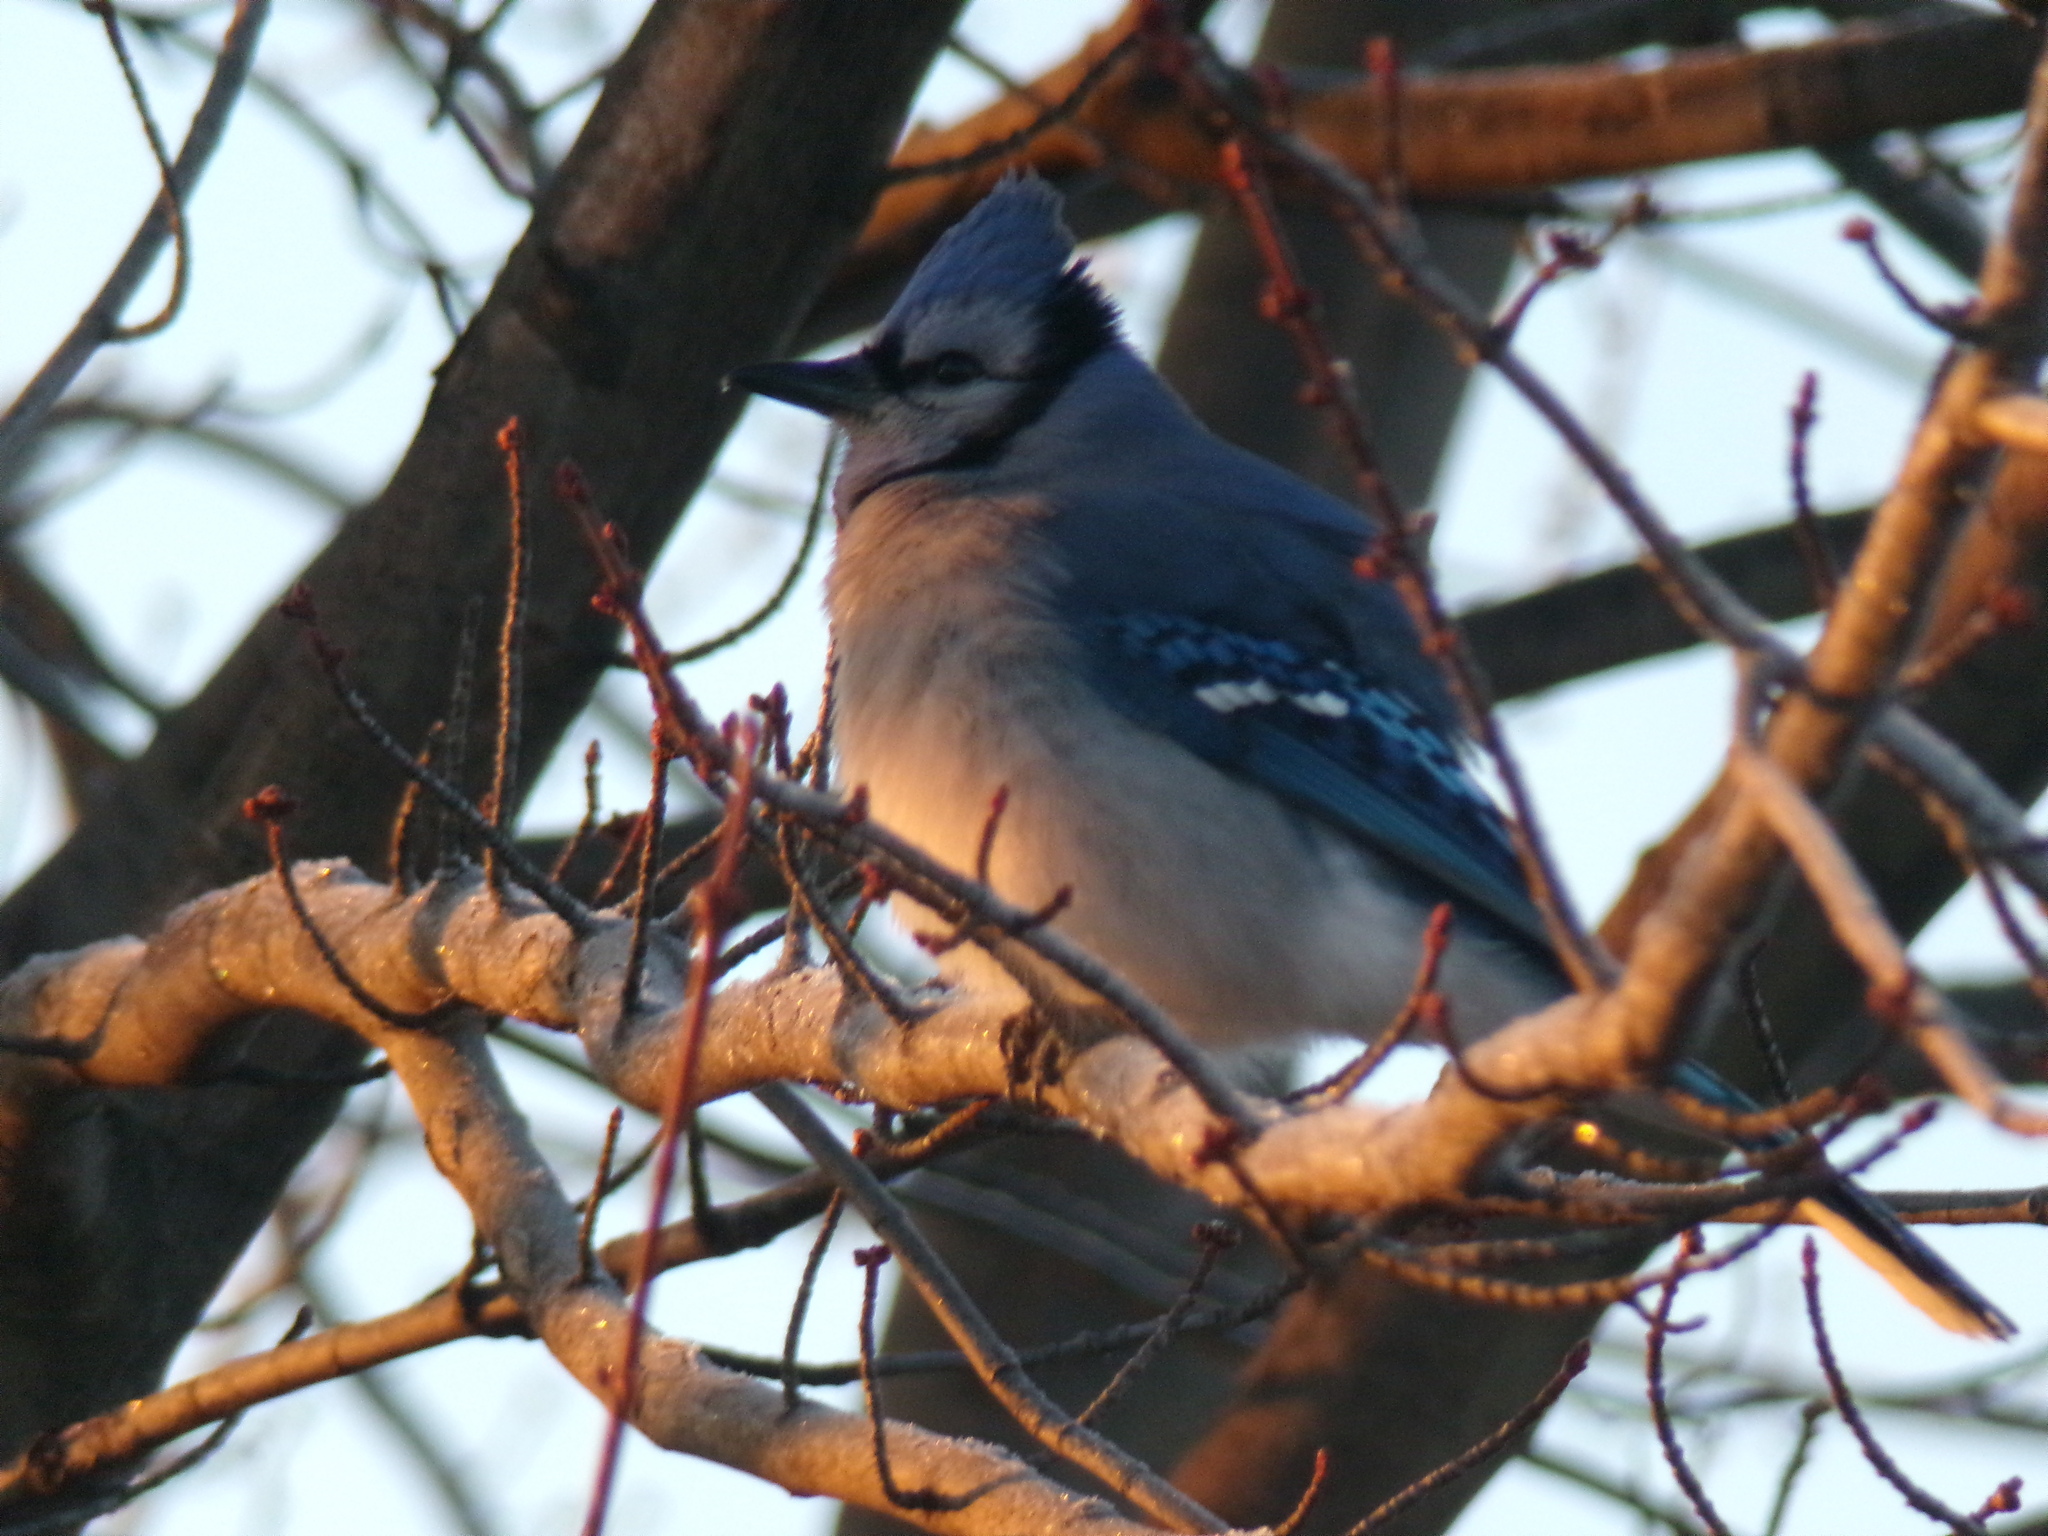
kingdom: Animalia
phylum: Chordata
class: Aves
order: Passeriformes
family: Corvidae
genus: Cyanocitta
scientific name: Cyanocitta cristata
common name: Blue jay
